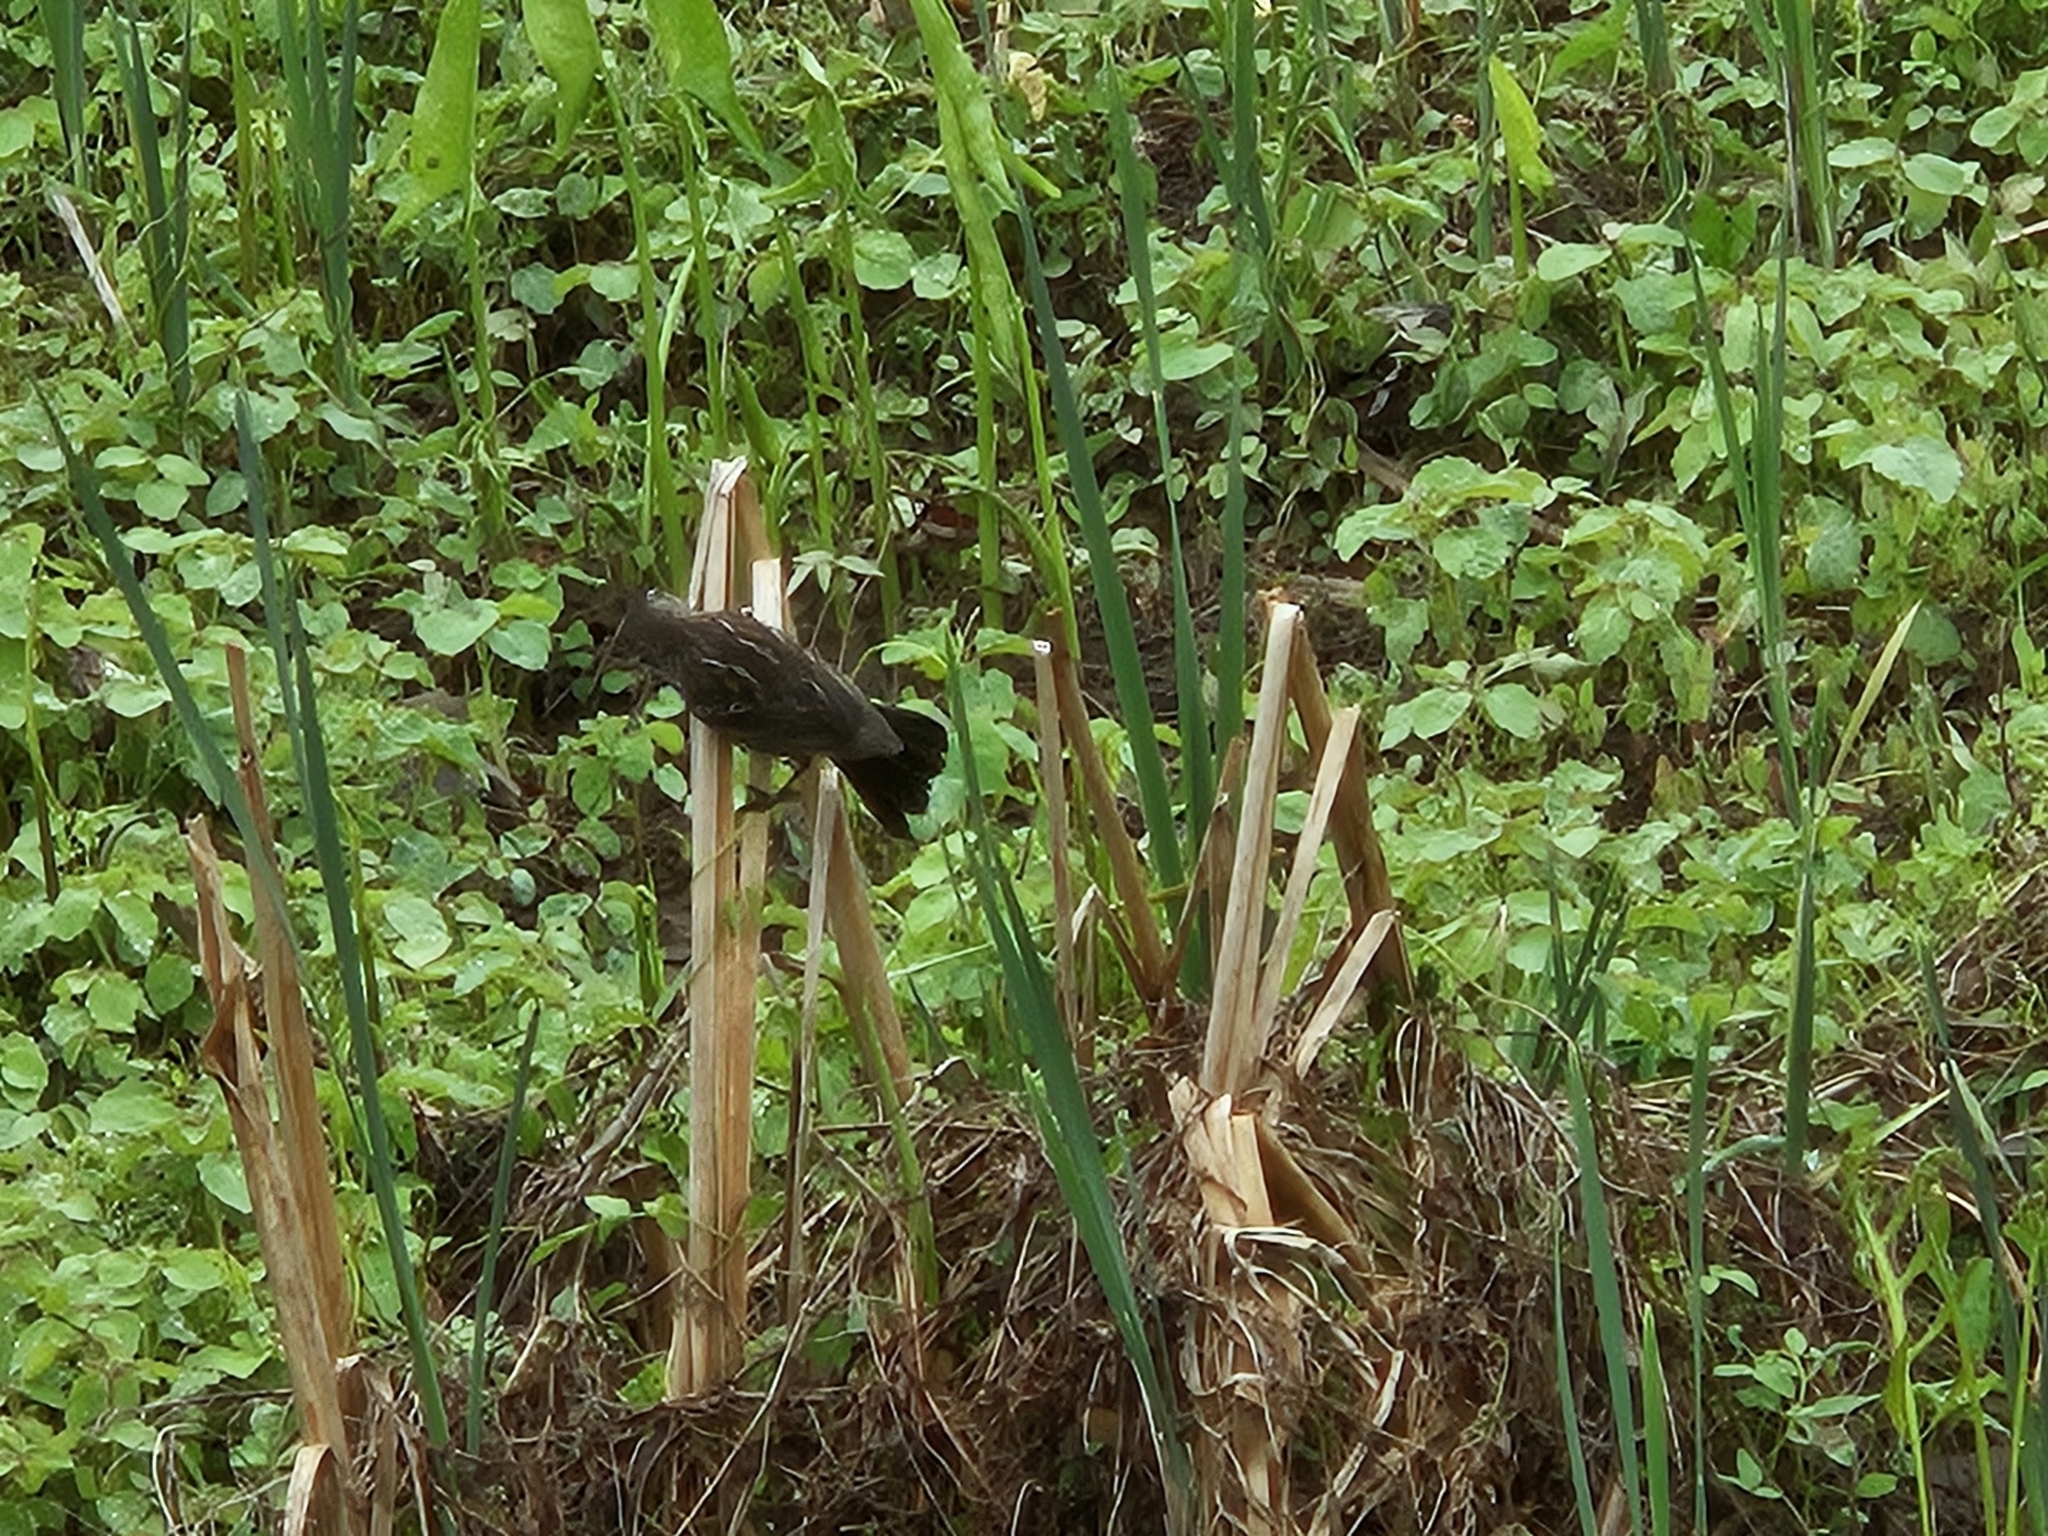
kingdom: Animalia
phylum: Chordata
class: Aves
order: Passeriformes
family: Icteridae
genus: Agelaius
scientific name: Agelaius phoeniceus
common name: Red-winged blackbird
